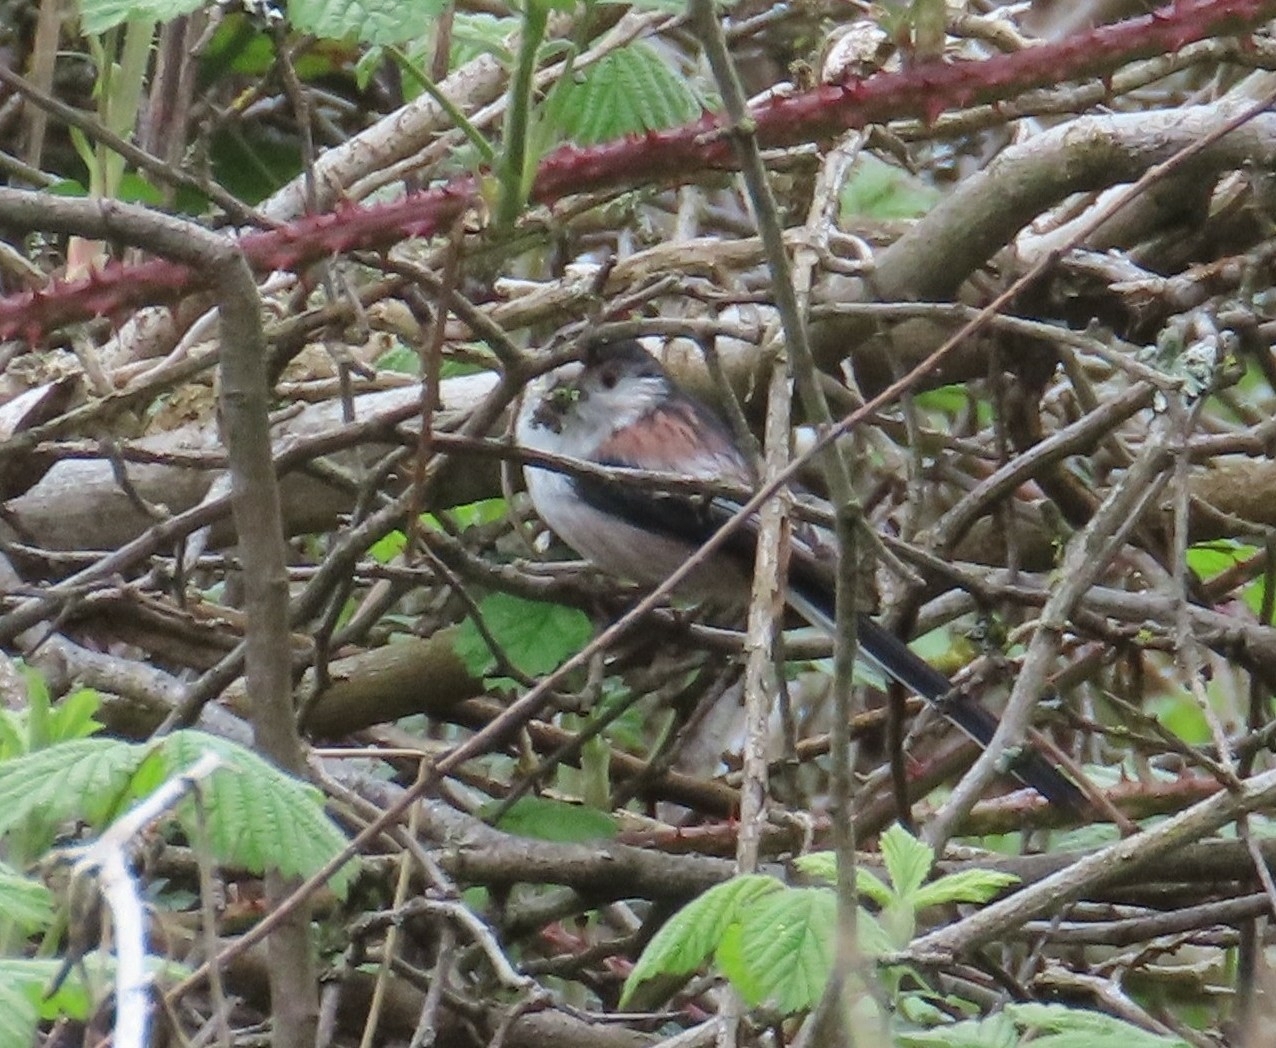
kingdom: Animalia
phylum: Chordata
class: Aves
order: Passeriformes
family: Aegithalidae
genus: Aegithalos
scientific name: Aegithalos caudatus
